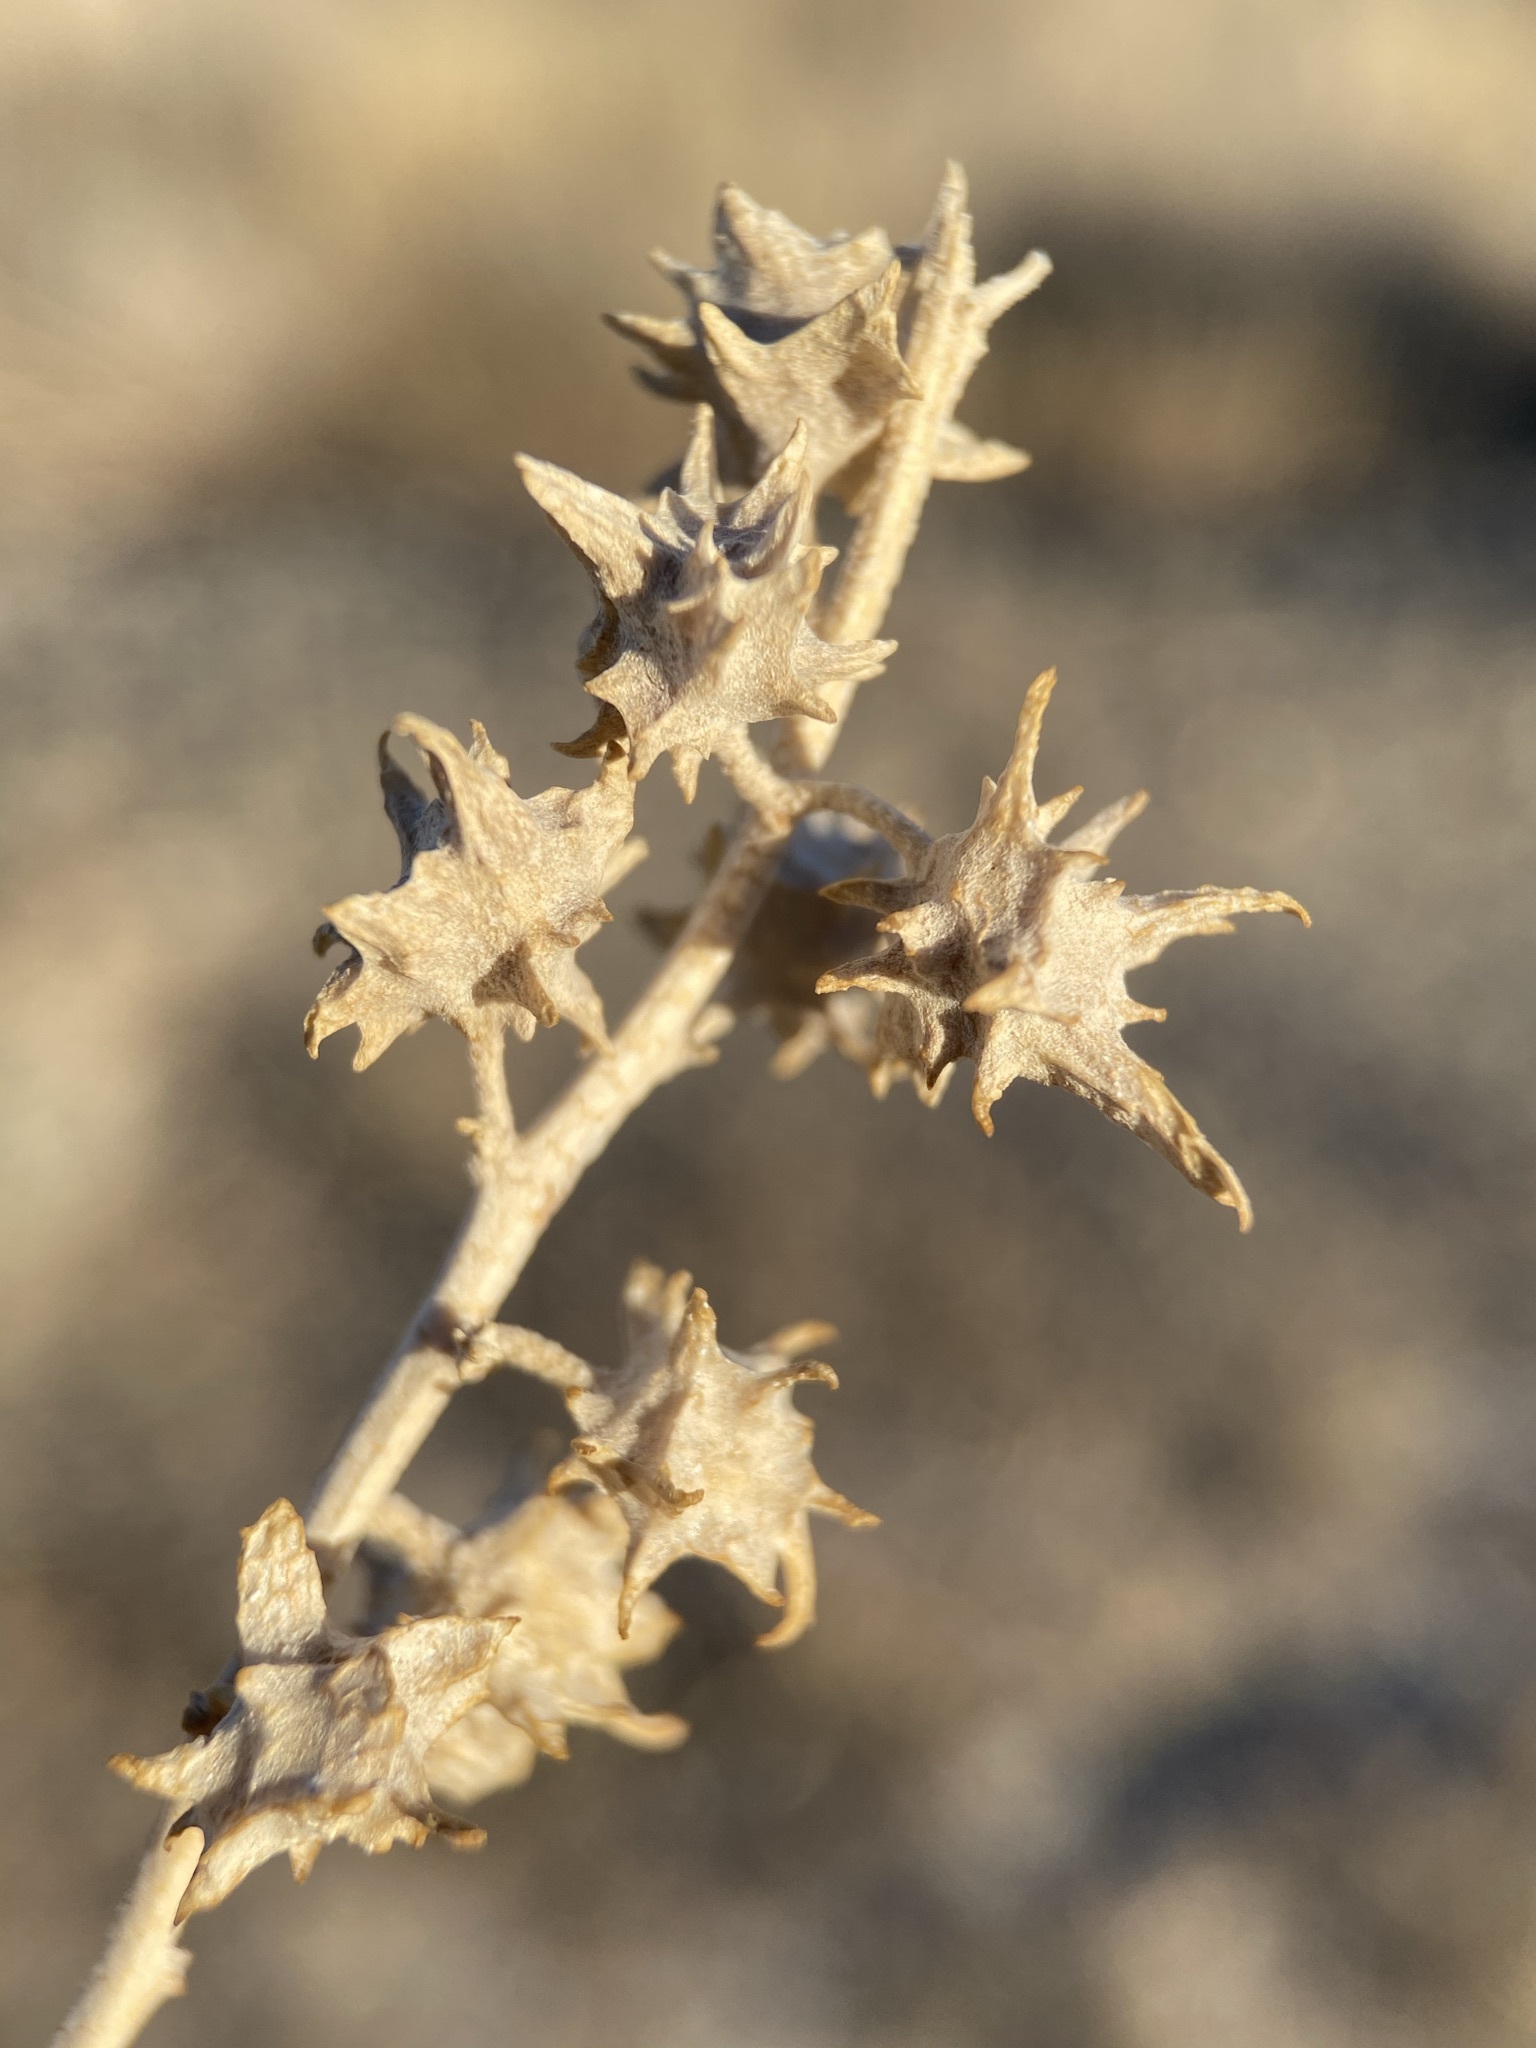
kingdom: Plantae
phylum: Tracheophyta
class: Magnoliopsida
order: Caryophyllales
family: Amaranthaceae
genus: Atriplex
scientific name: Atriplex acanthocarpa
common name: Burscale
